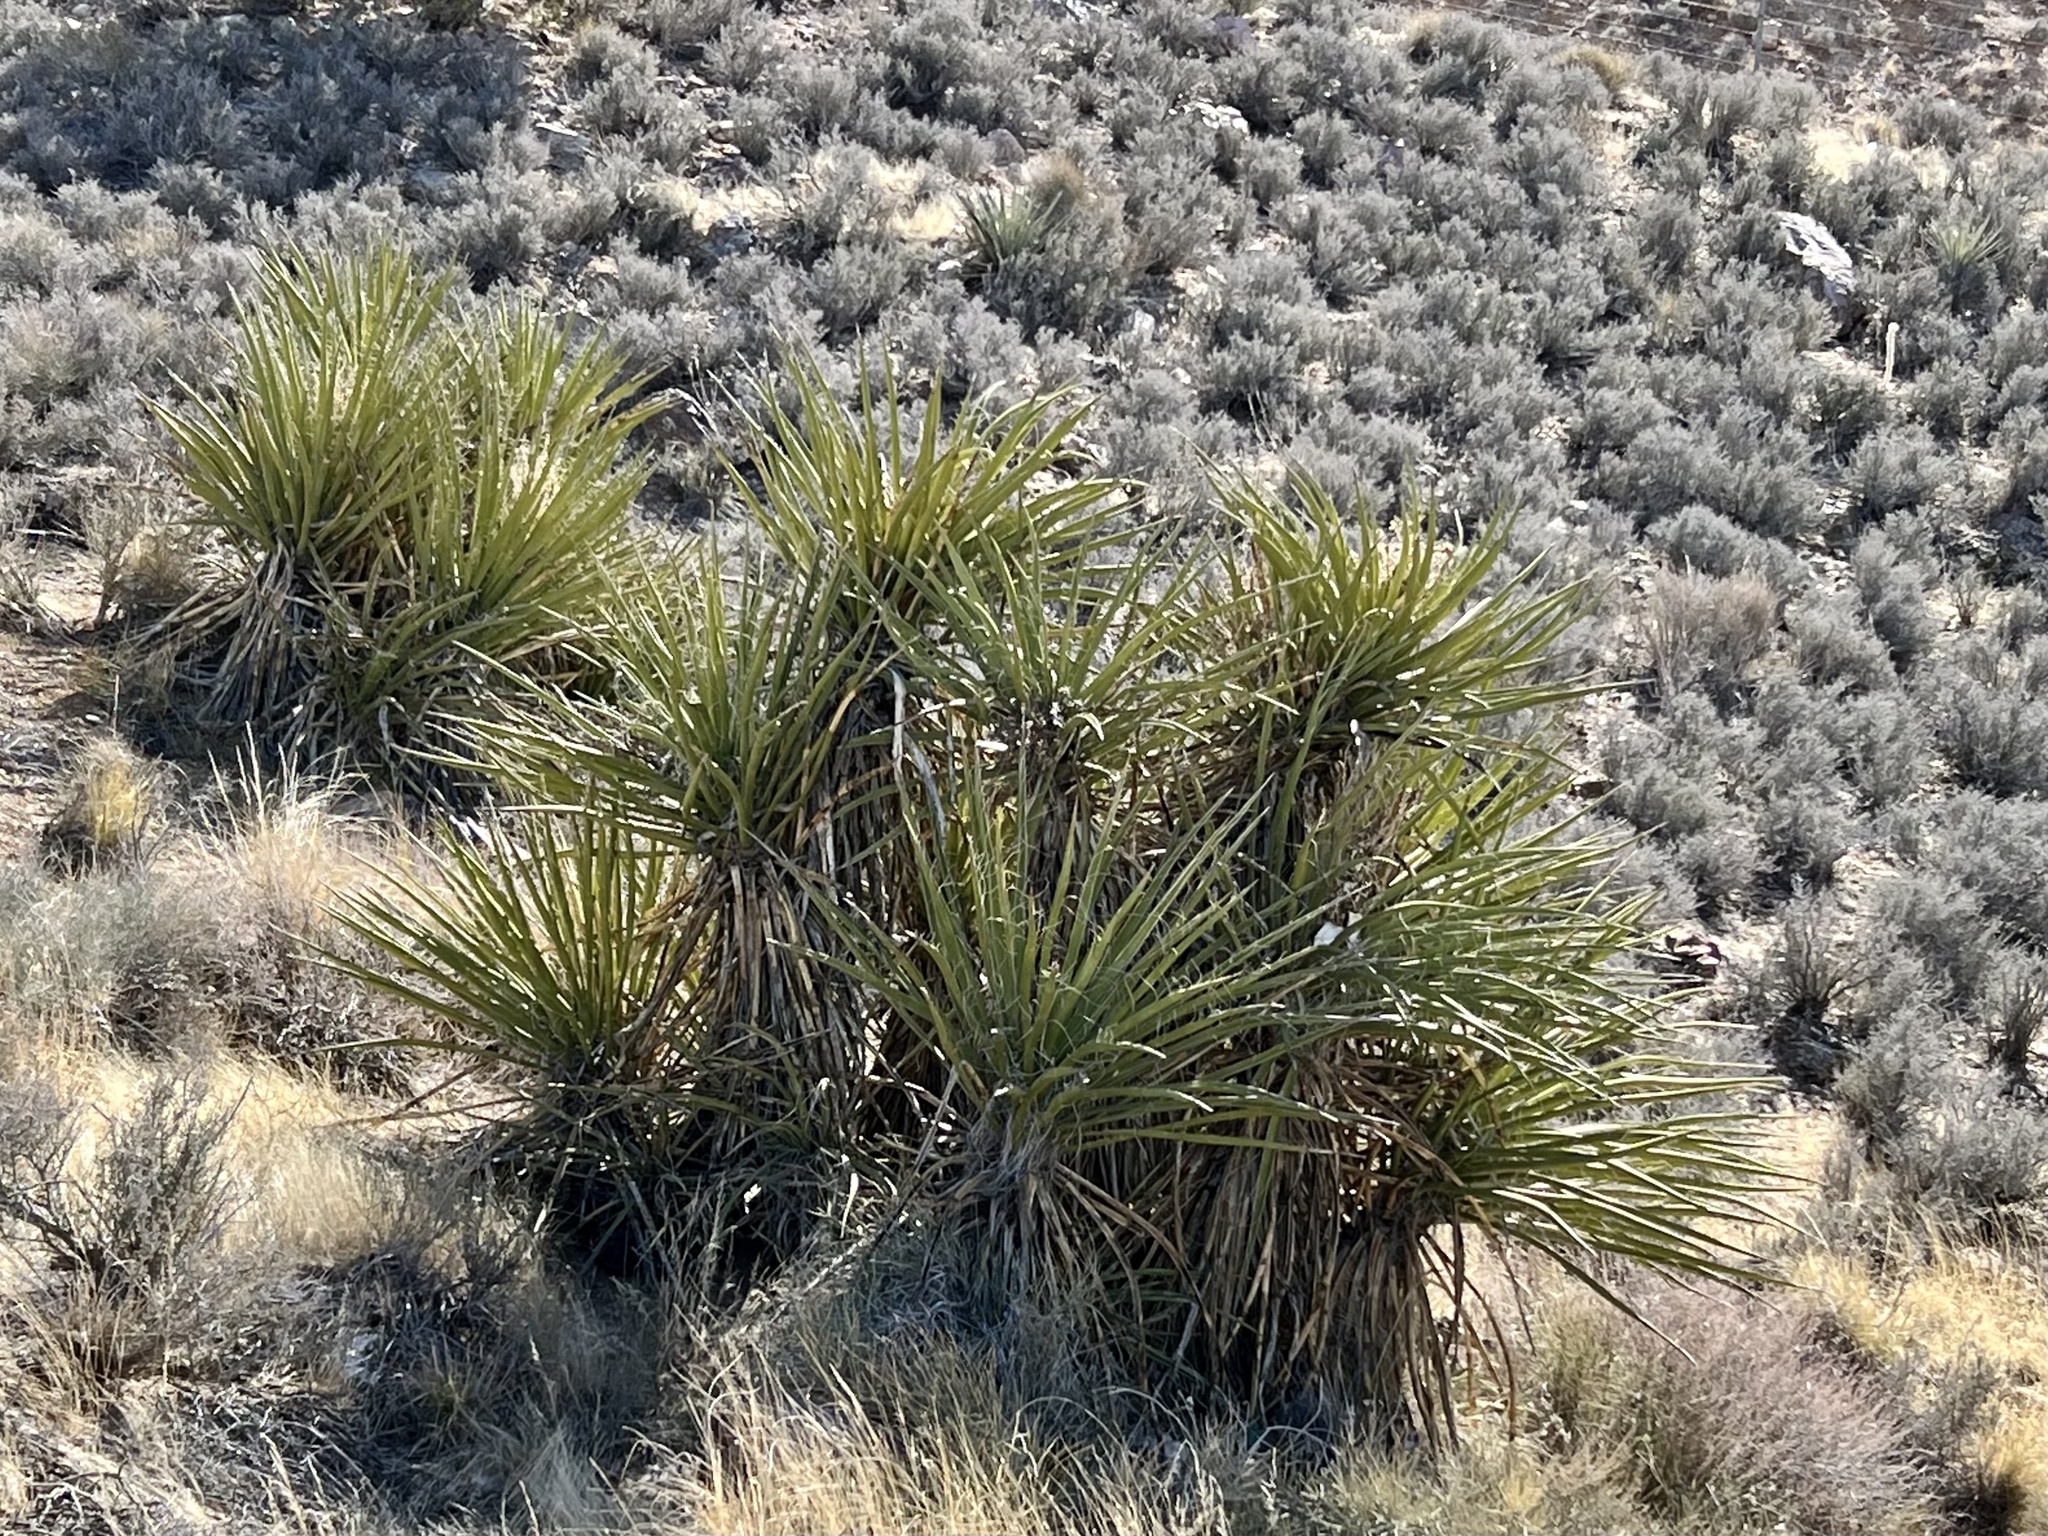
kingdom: Plantae
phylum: Tracheophyta
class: Liliopsida
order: Asparagales
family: Asparagaceae
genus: Yucca
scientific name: Yucca schidigera
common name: Mojave yucca
